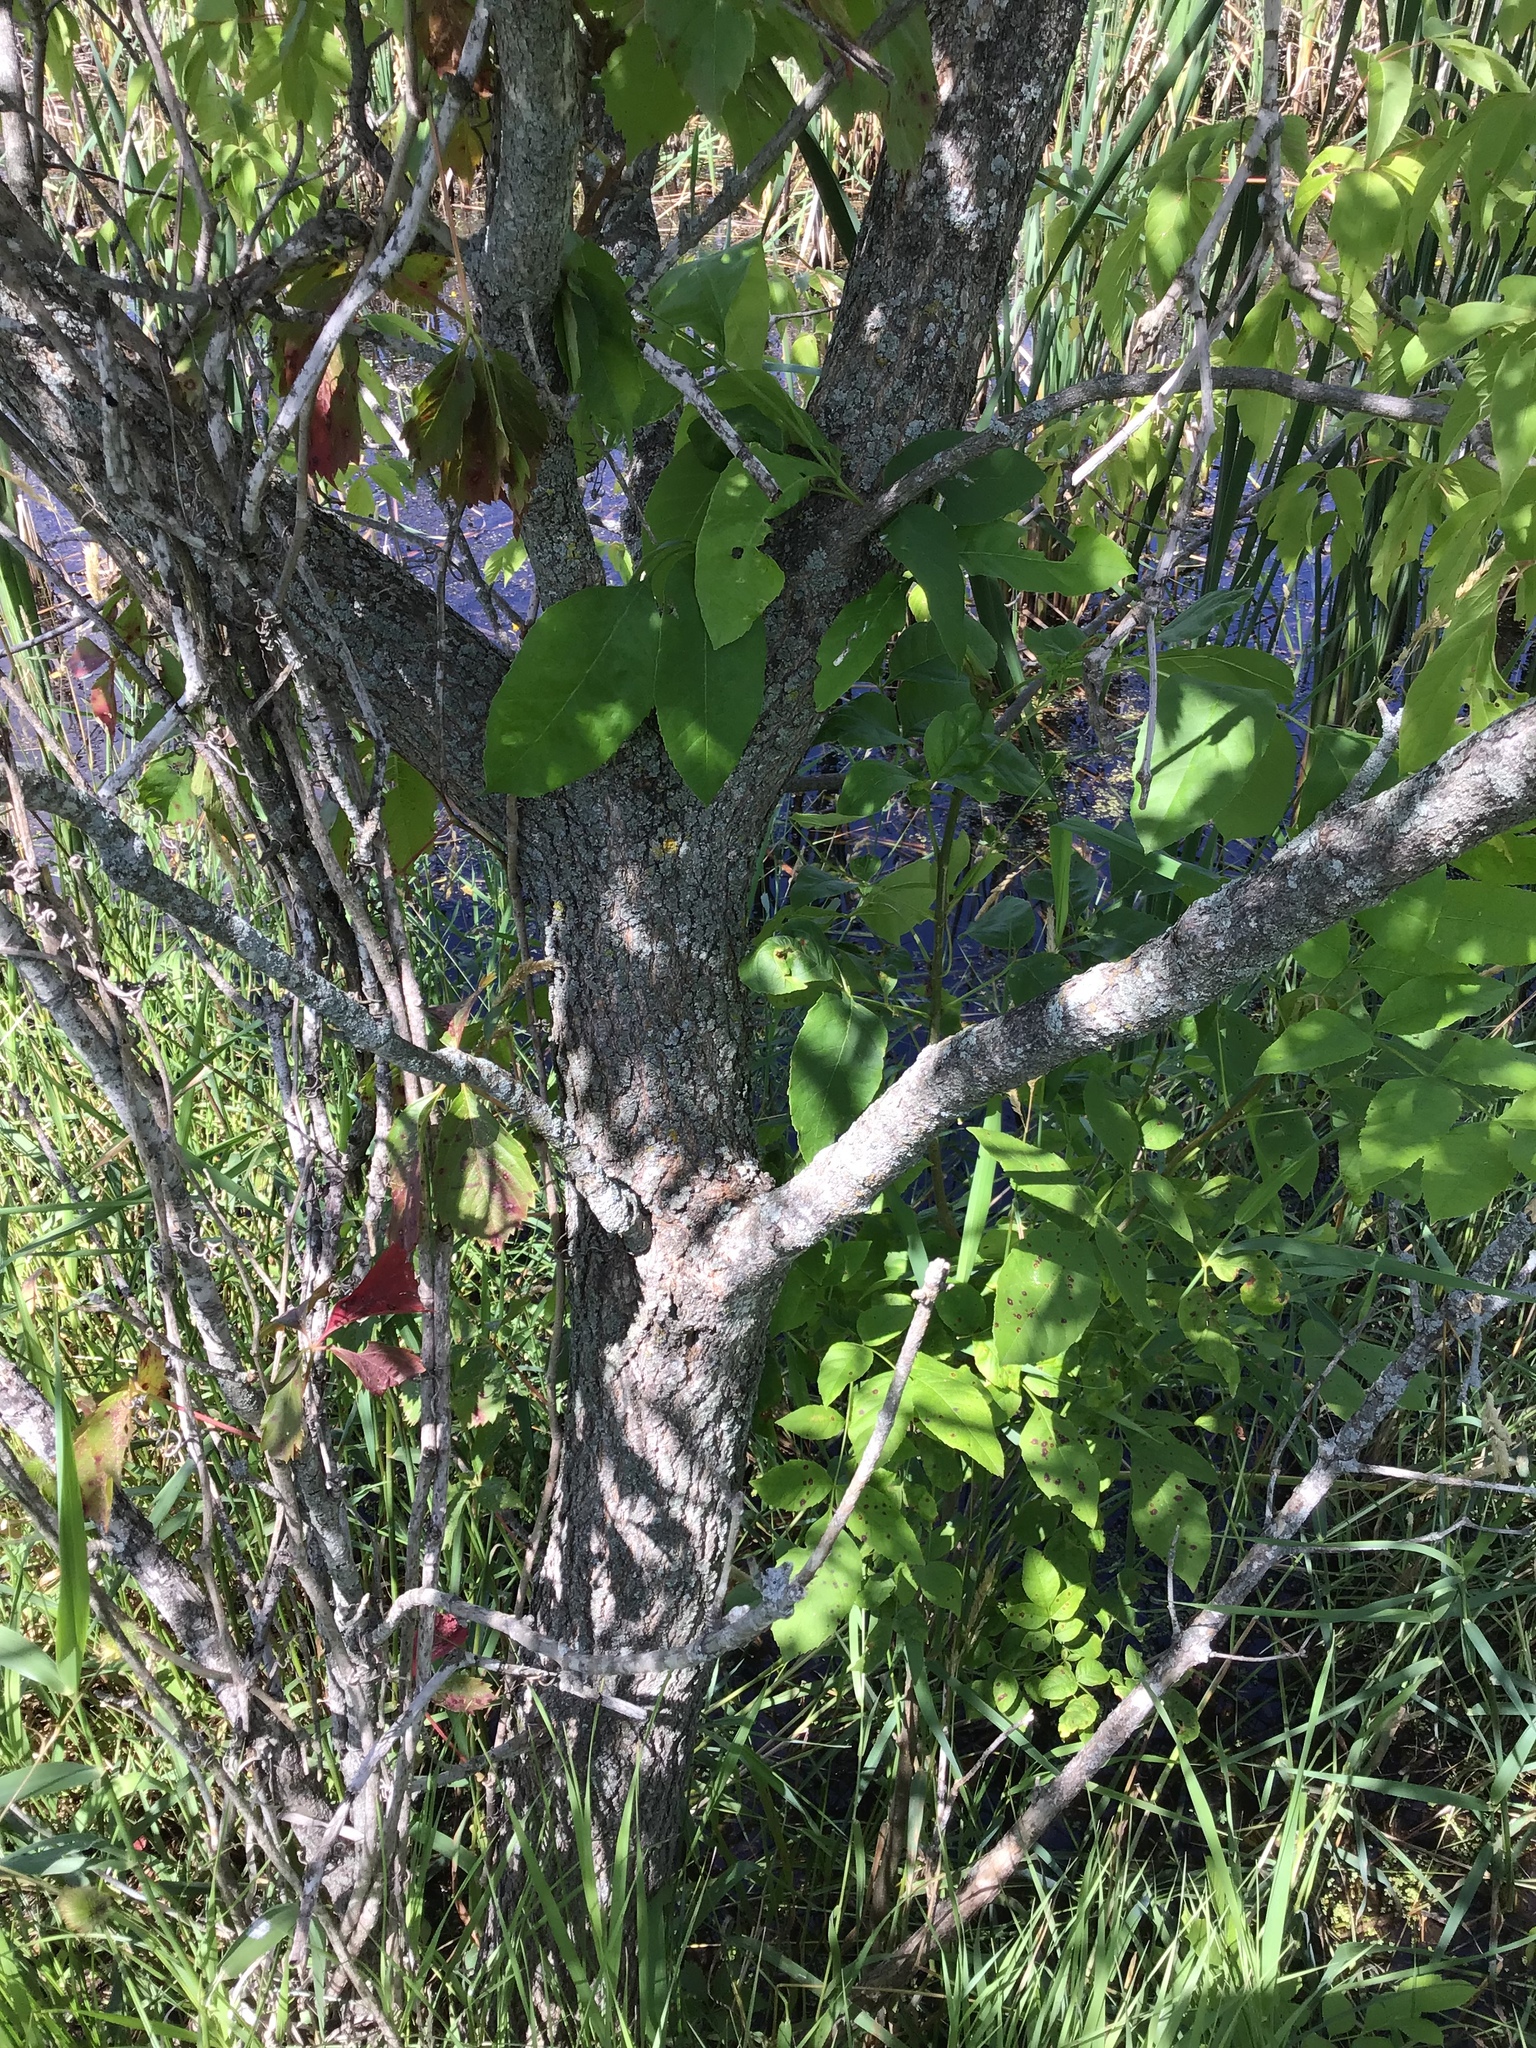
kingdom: Plantae
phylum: Tracheophyta
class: Magnoliopsida
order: Sapindales
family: Sapindaceae
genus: Acer
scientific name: Acer negundo
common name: Ashleaf maple
